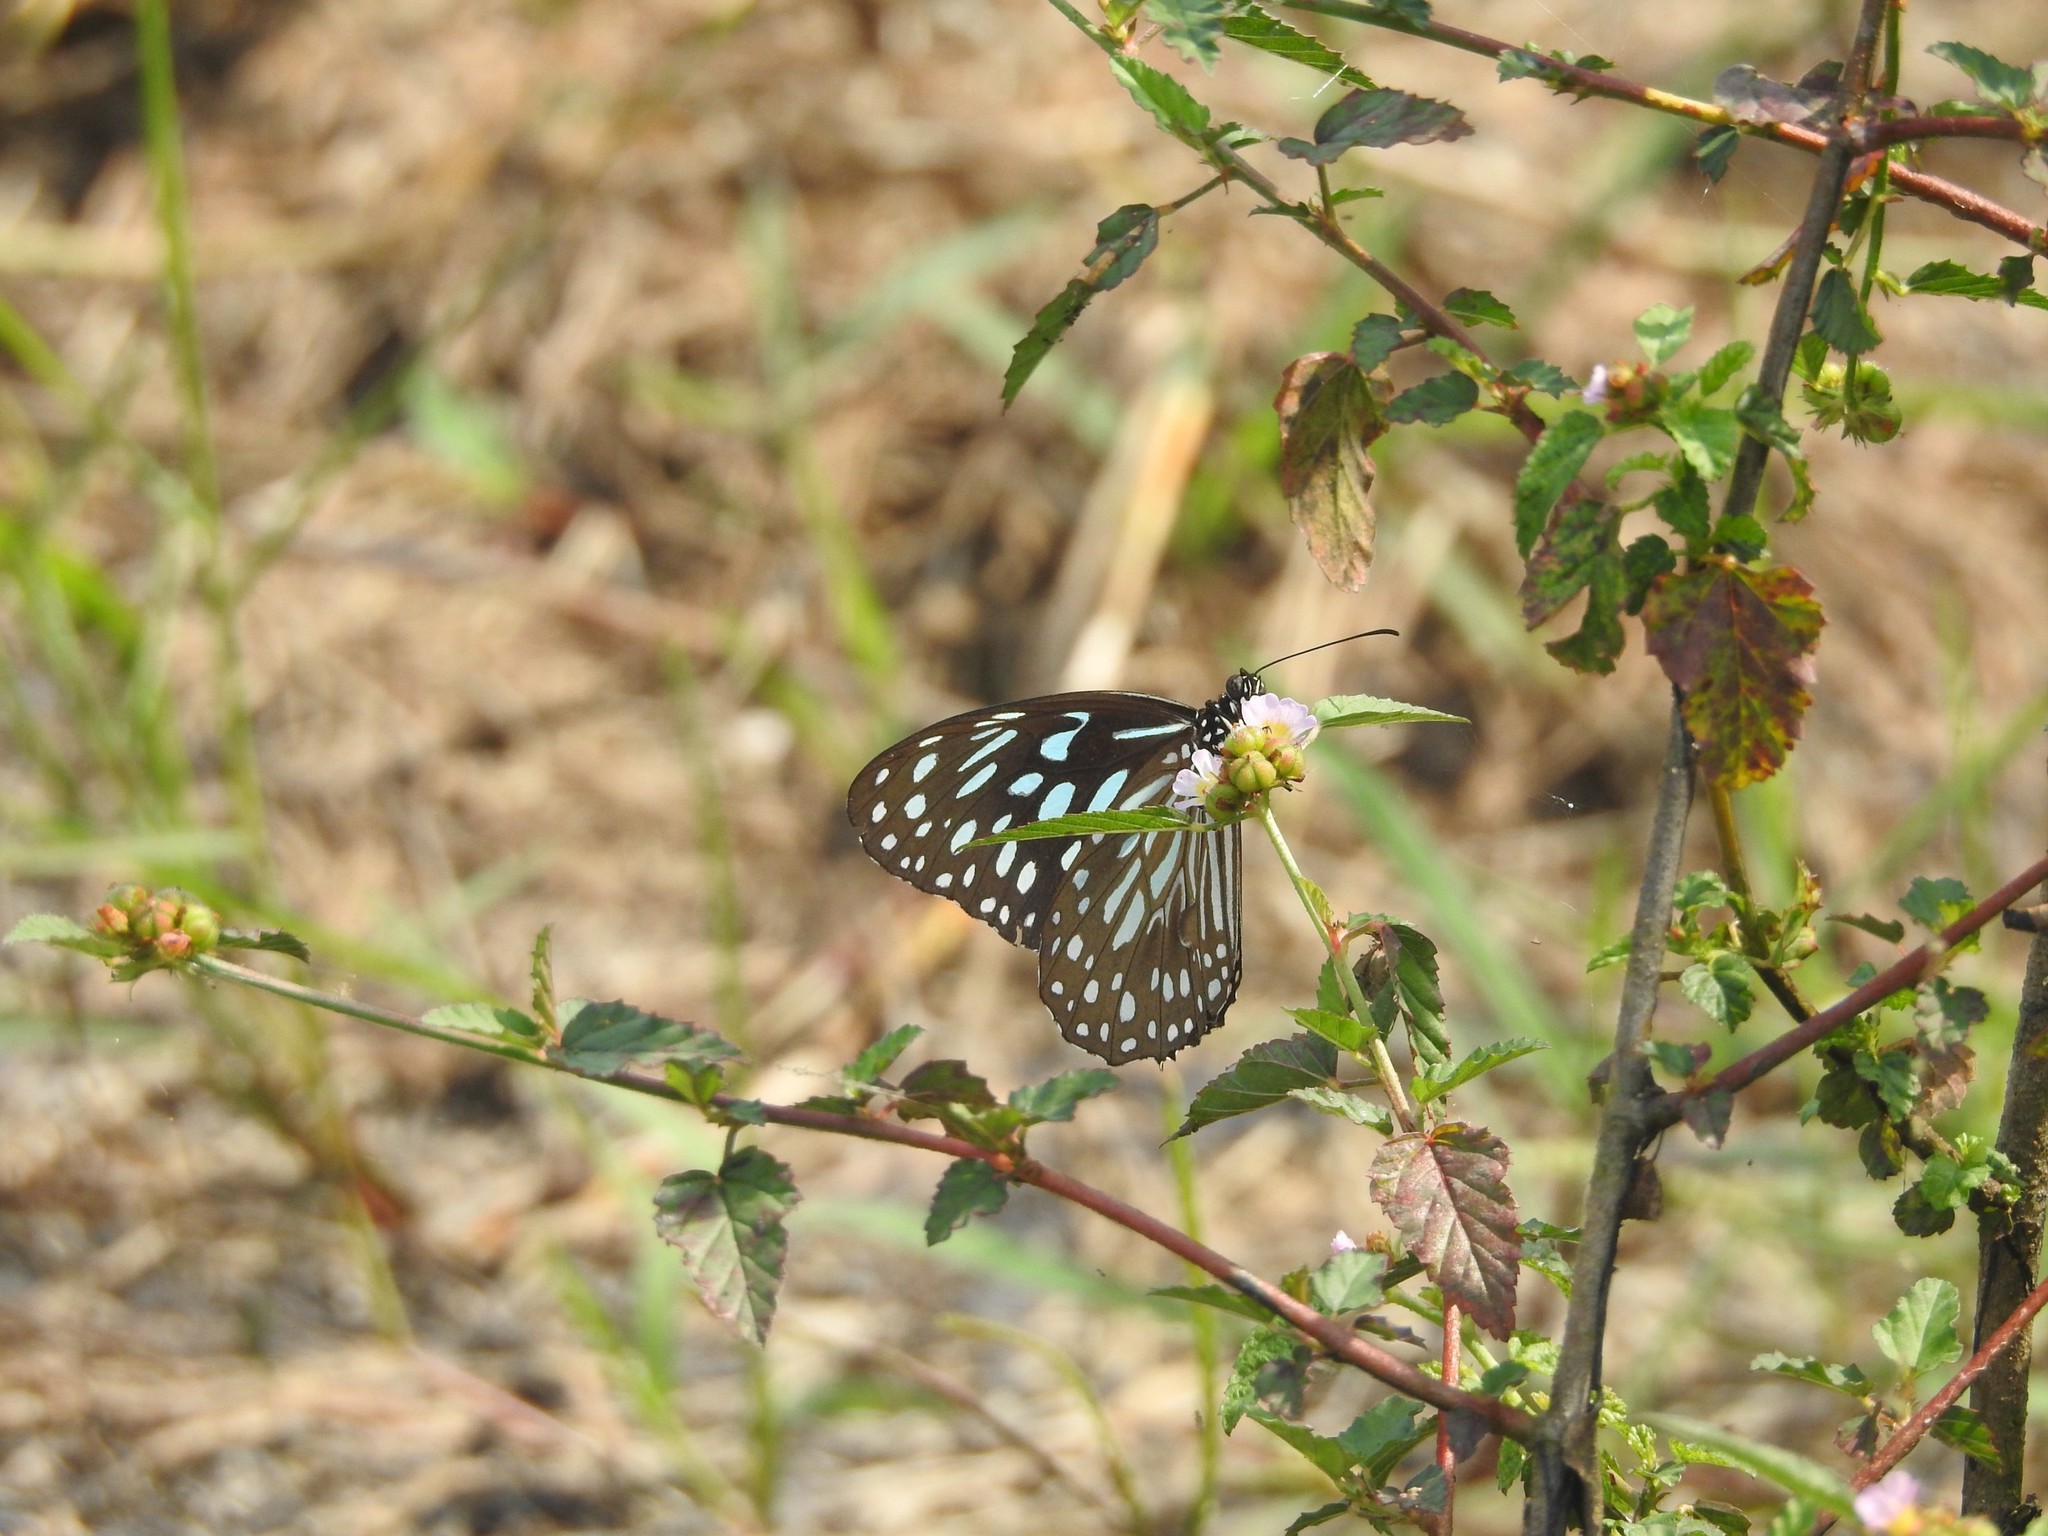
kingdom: Animalia
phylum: Arthropoda
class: Insecta
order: Lepidoptera
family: Nymphalidae
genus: Tirumala
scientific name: Tirumala septentrionis
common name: Dark blue tiger butterfly
